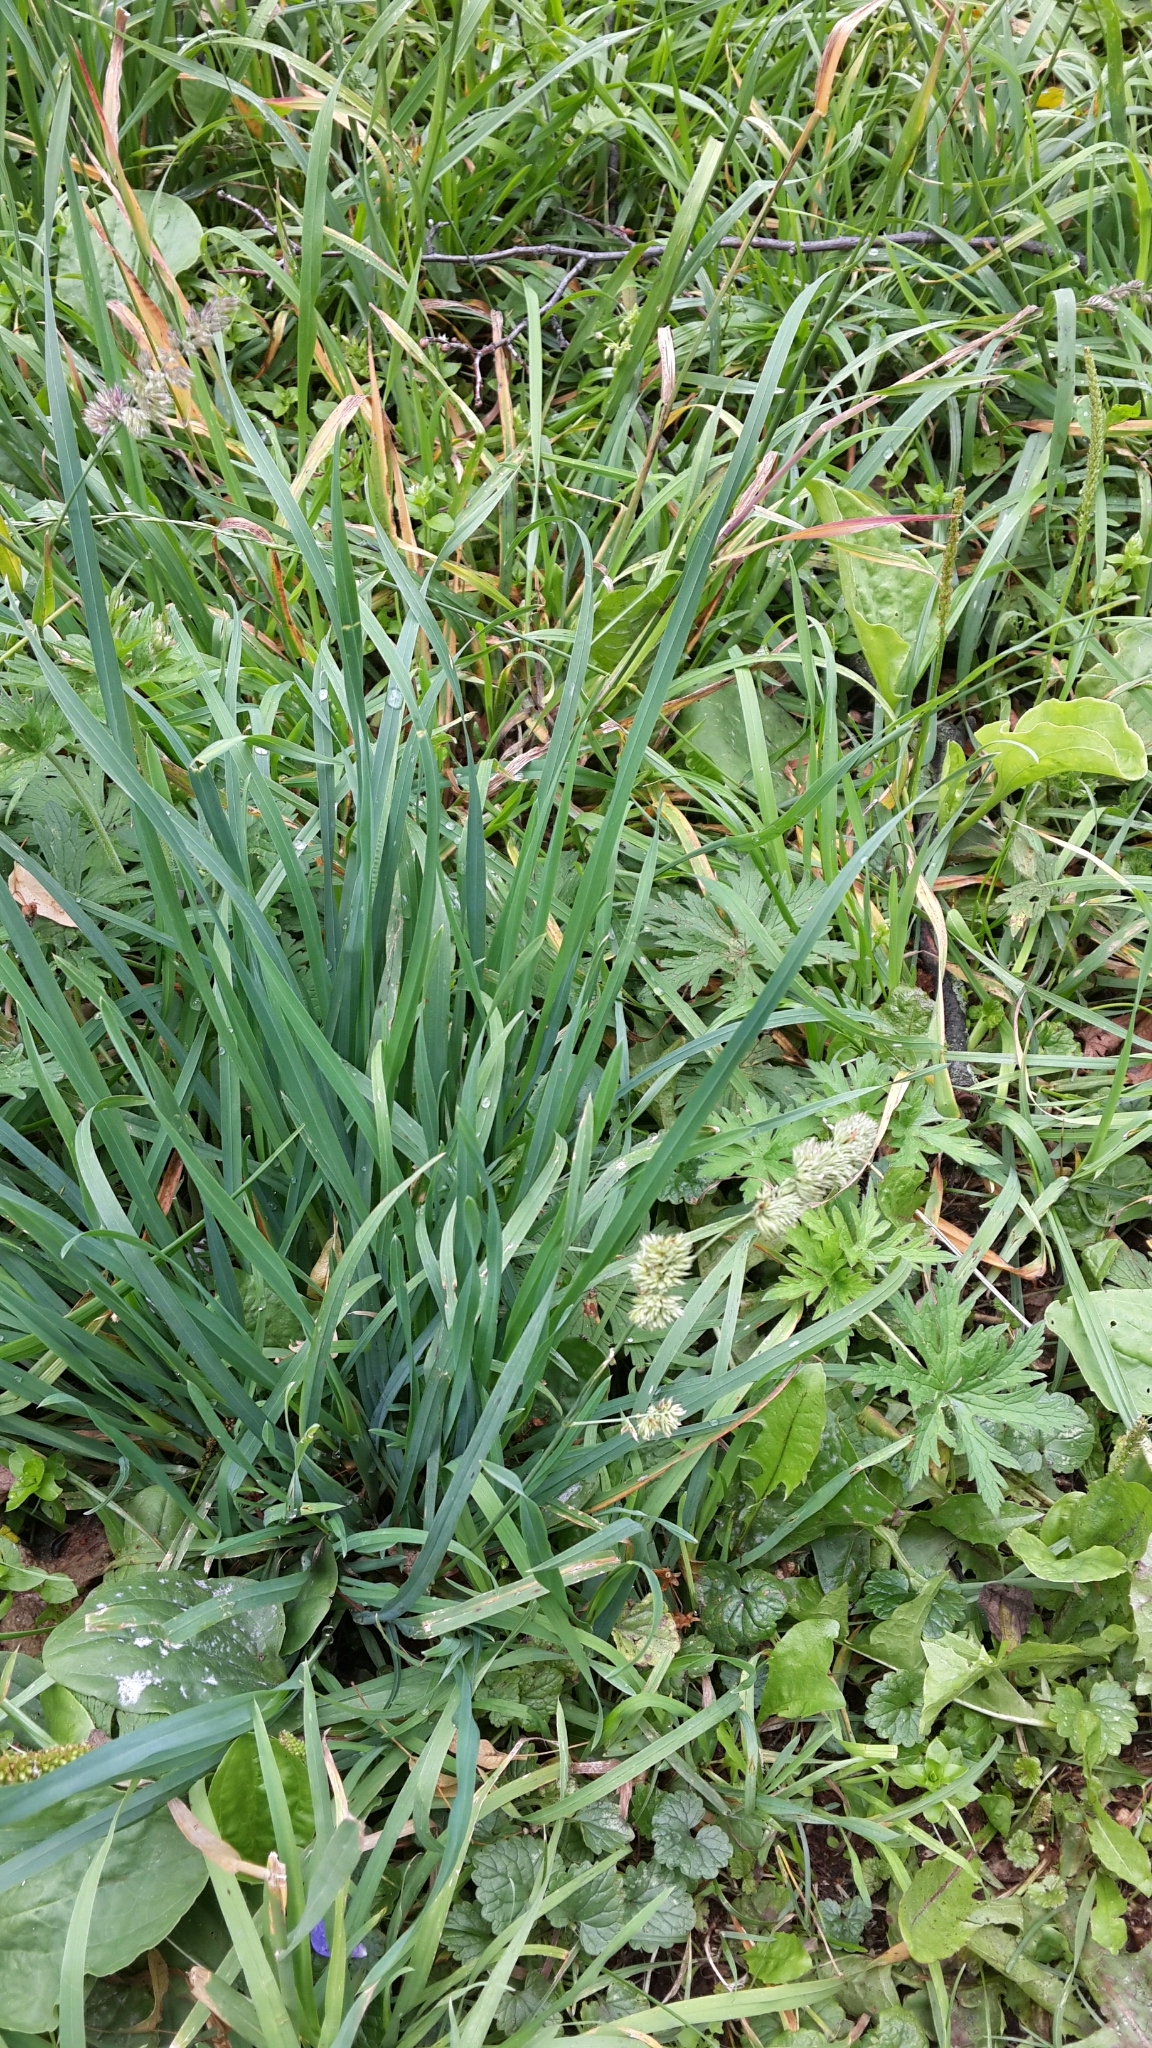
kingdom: Plantae
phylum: Tracheophyta
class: Liliopsida
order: Poales
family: Poaceae
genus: Dactylis
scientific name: Dactylis glomerata
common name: Orchardgrass
